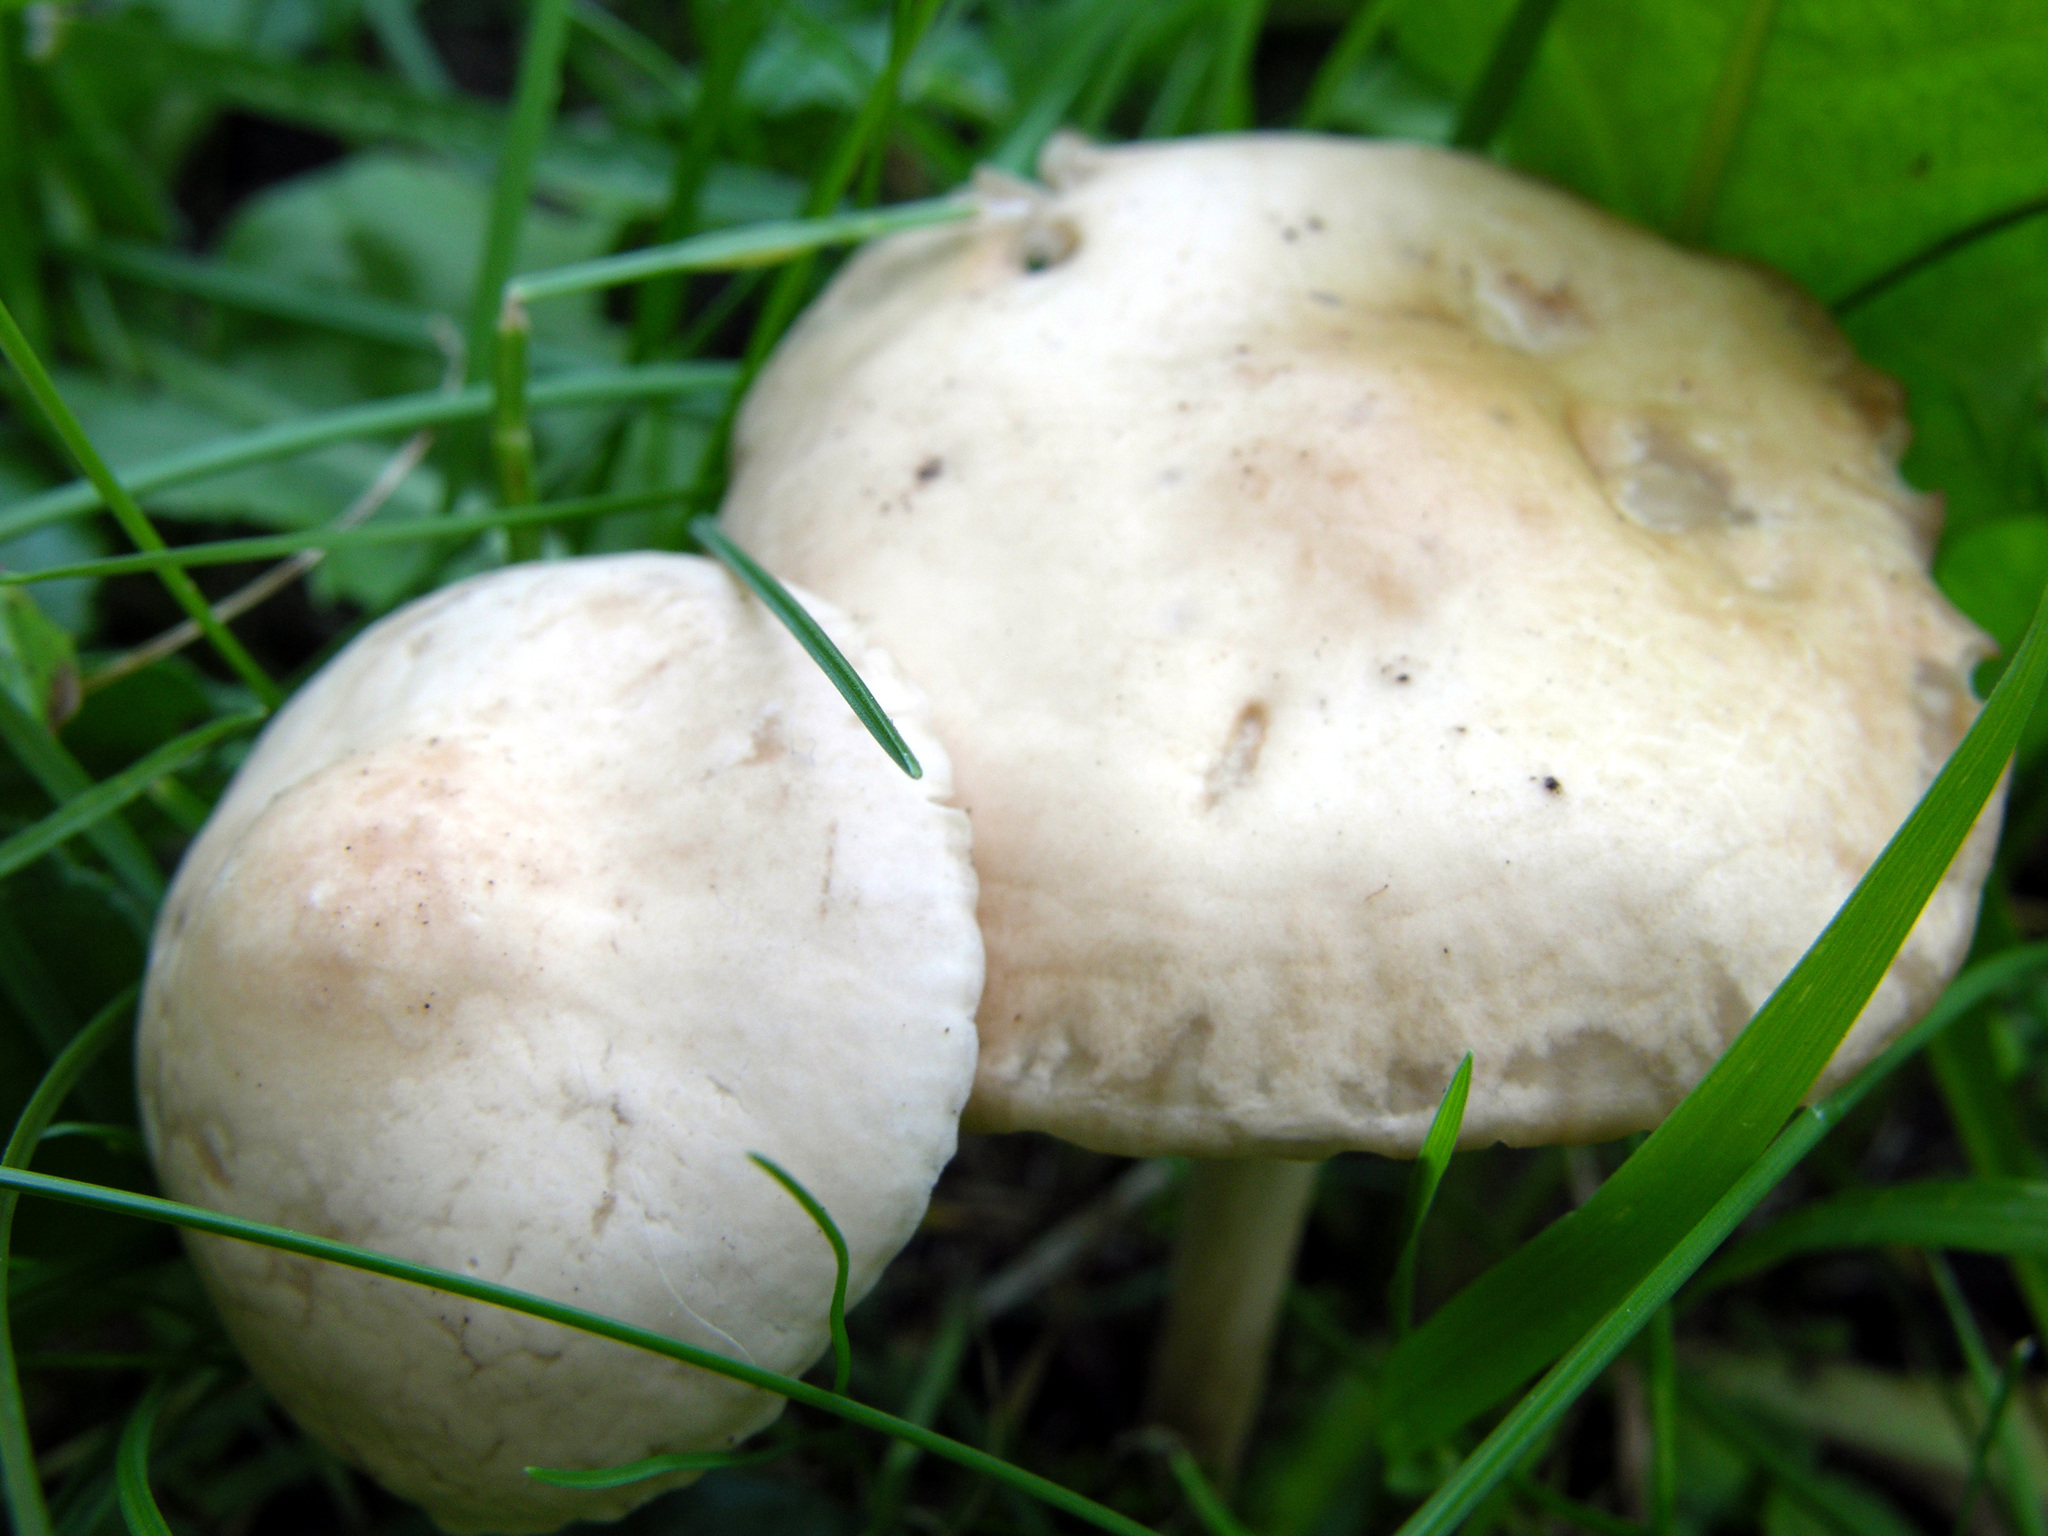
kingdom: Fungi
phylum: Basidiomycota
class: Agaricomycetes
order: Agaricales
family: Marasmiaceae
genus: Marasmius
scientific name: Marasmius oreades
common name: Fairy ring champignon
